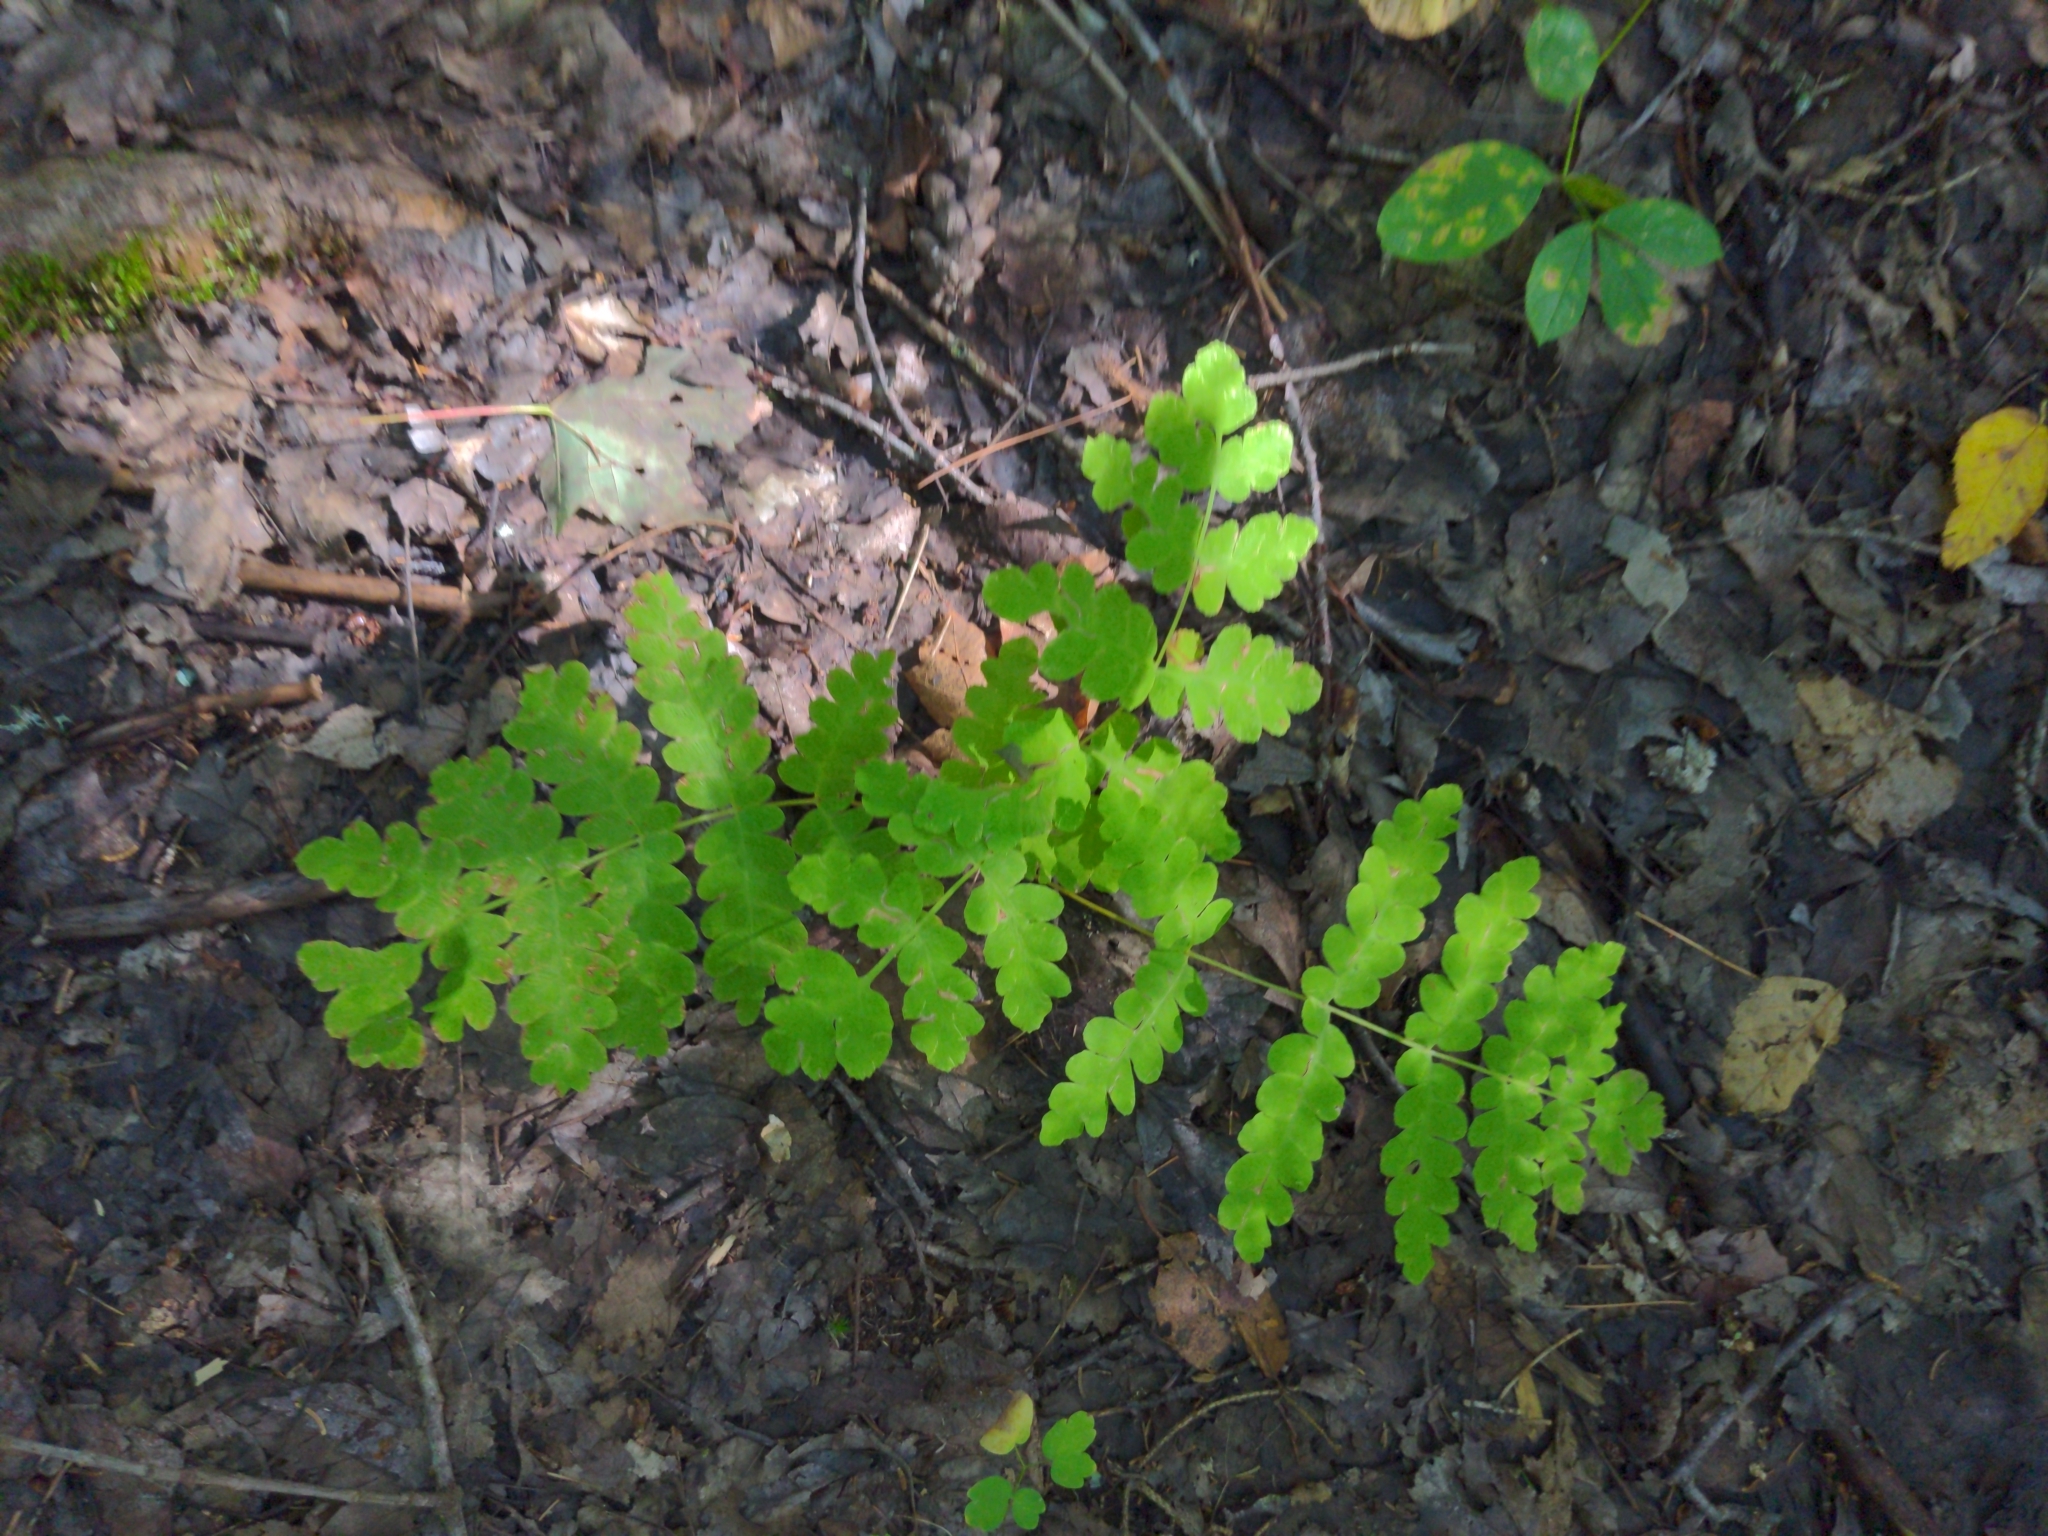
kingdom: Plantae
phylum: Tracheophyta
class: Polypodiopsida
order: Osmundales
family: Osmundaceae
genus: Claytosmunda
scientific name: Claytosmunda claytoniana
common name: Clayton's fern
